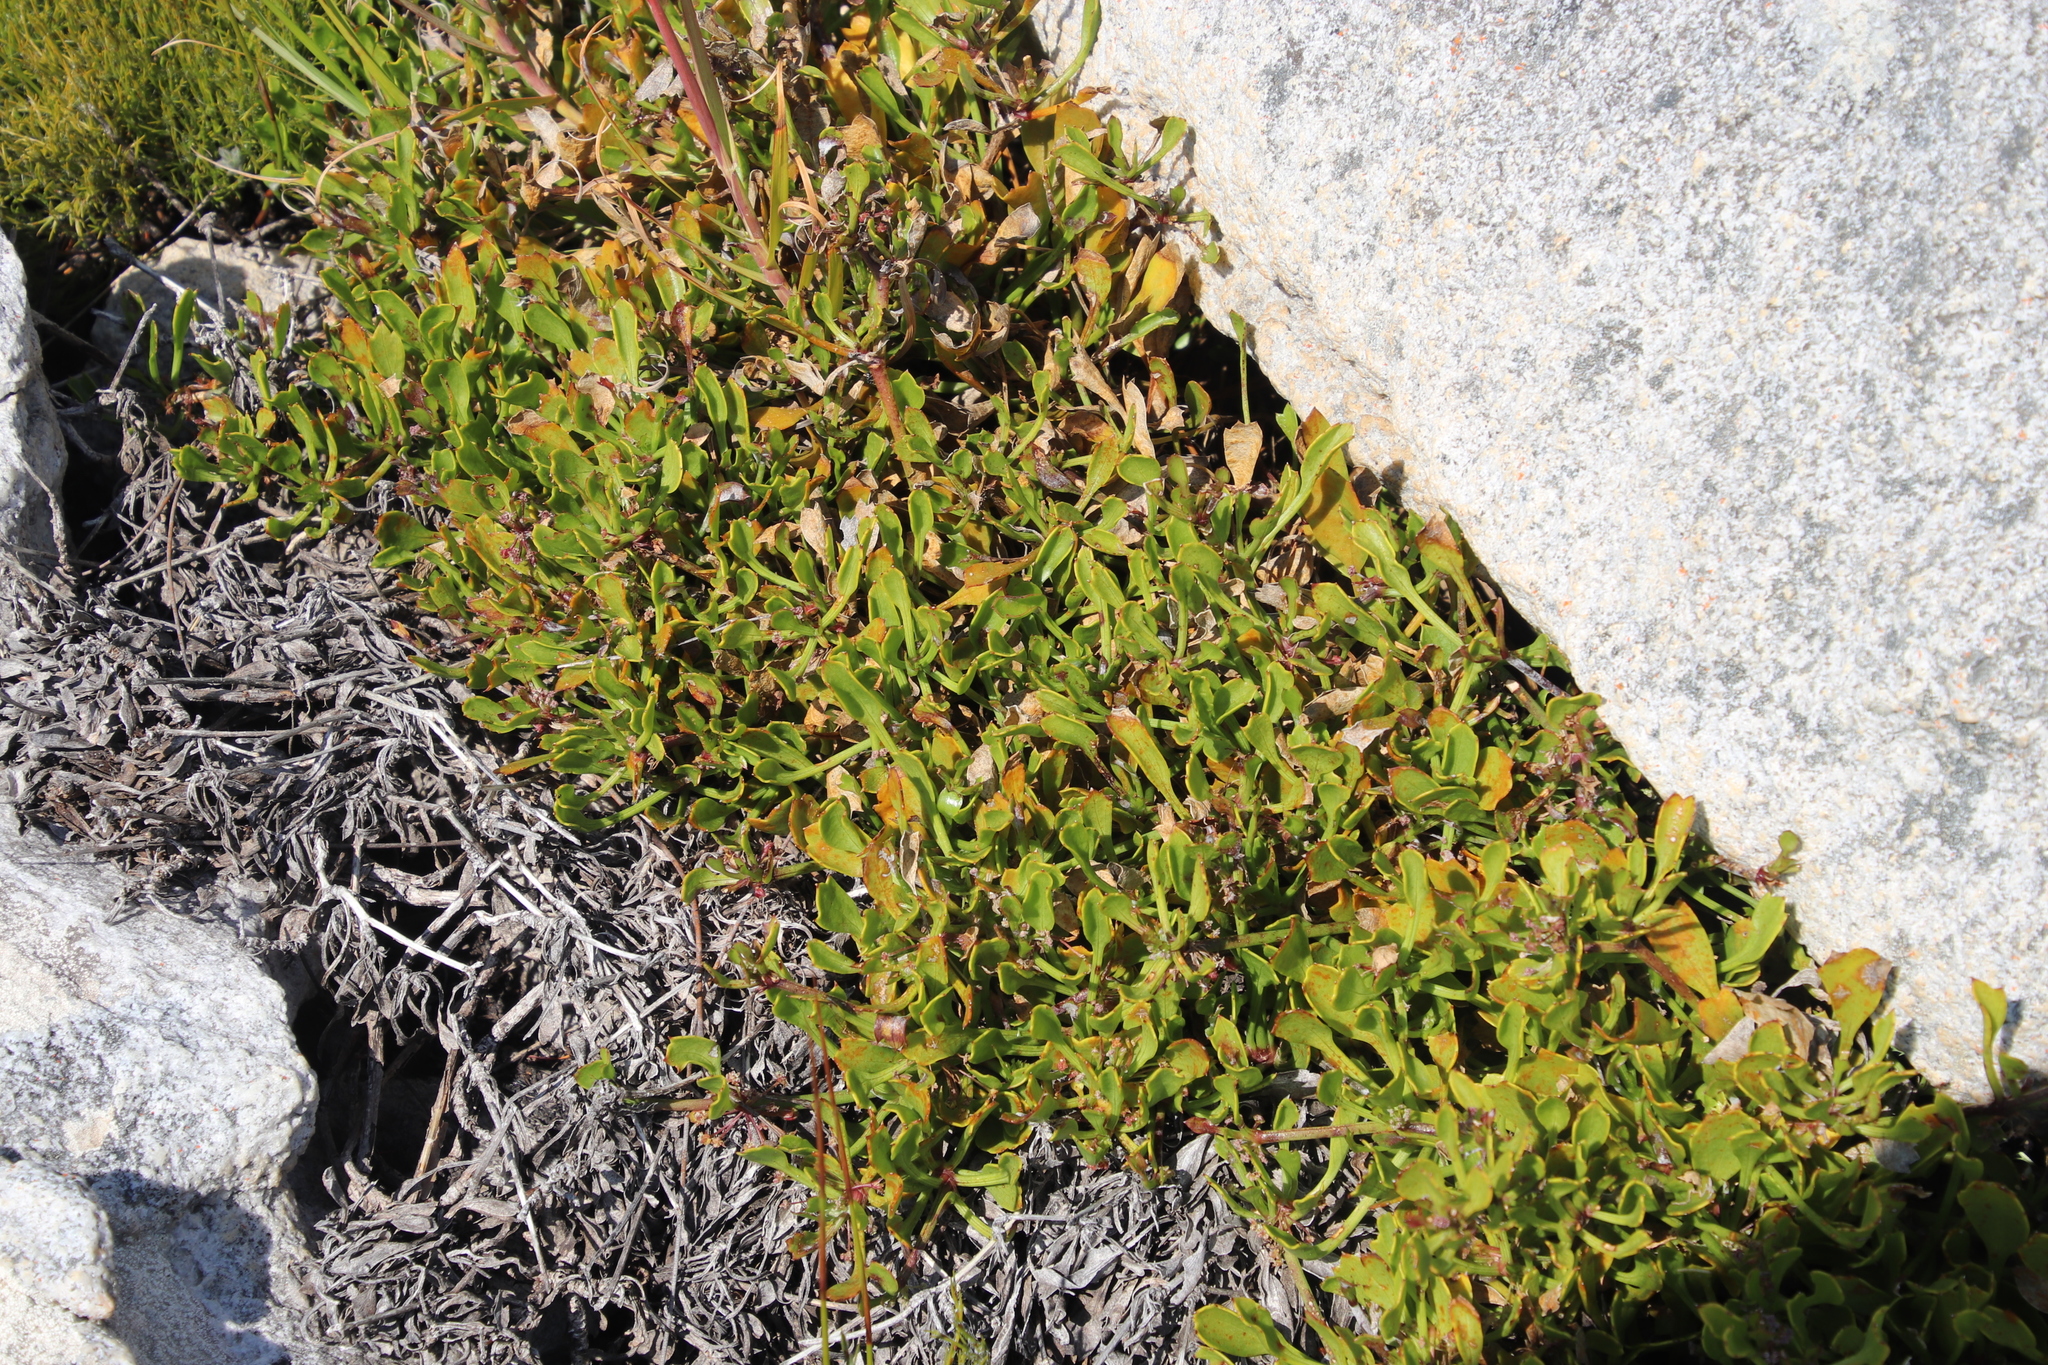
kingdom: Plantae
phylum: Tracheophyta
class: Magnoliopsida
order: Apiales
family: Apiaceae
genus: Centella
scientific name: Centella triloba
